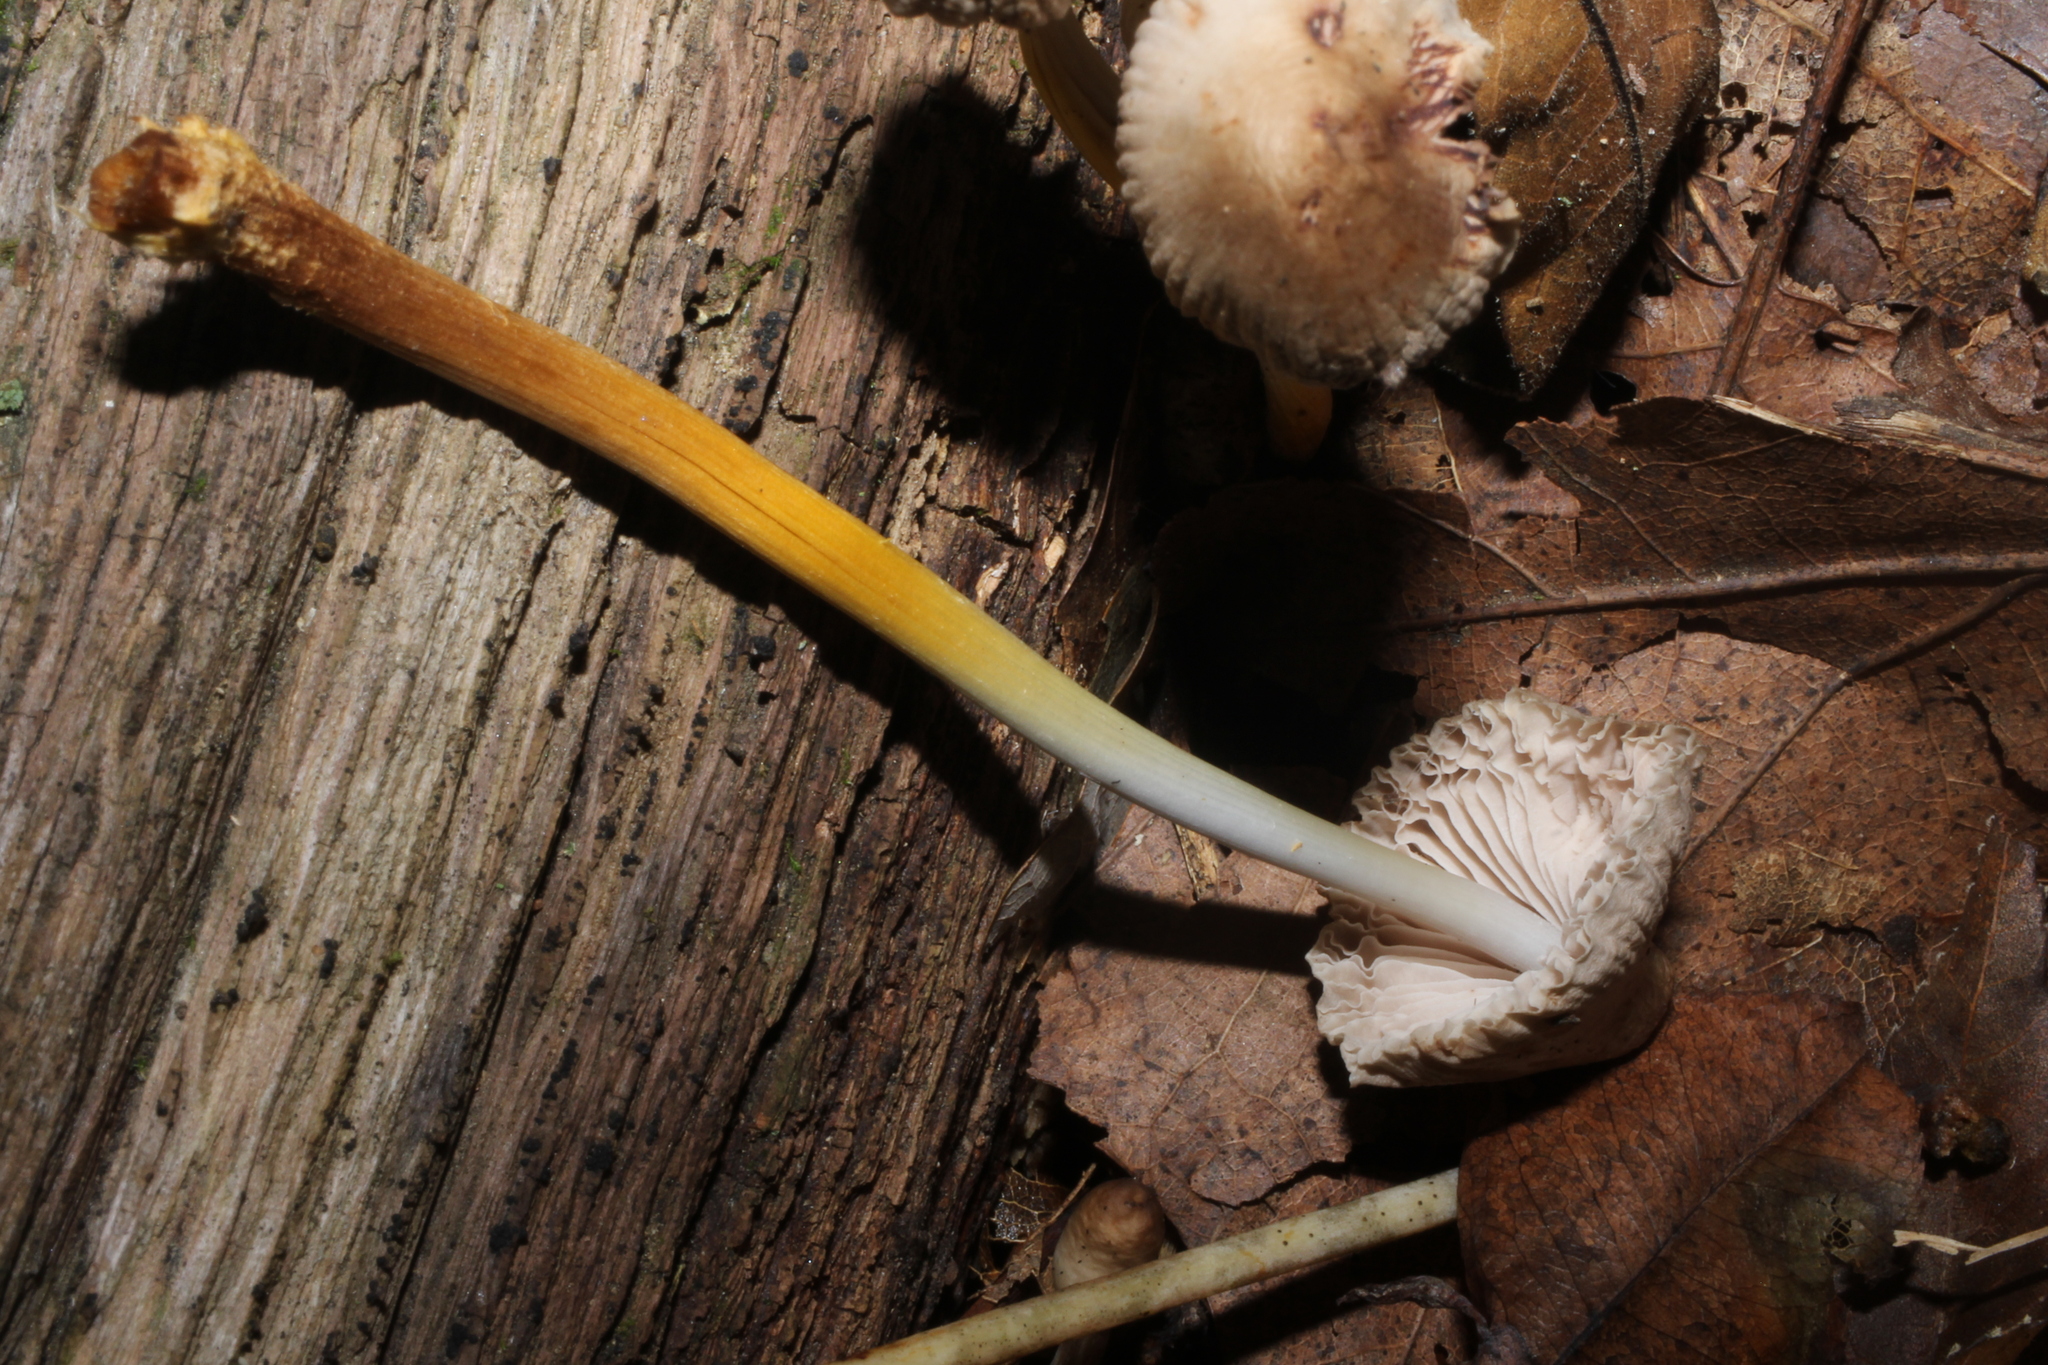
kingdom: Fungi
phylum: Basidiomycota
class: Agaricomycetes
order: Agaricales
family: Mycenaceae
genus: Mycena
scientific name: Mycena inclinata
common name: Clustered bonnet
